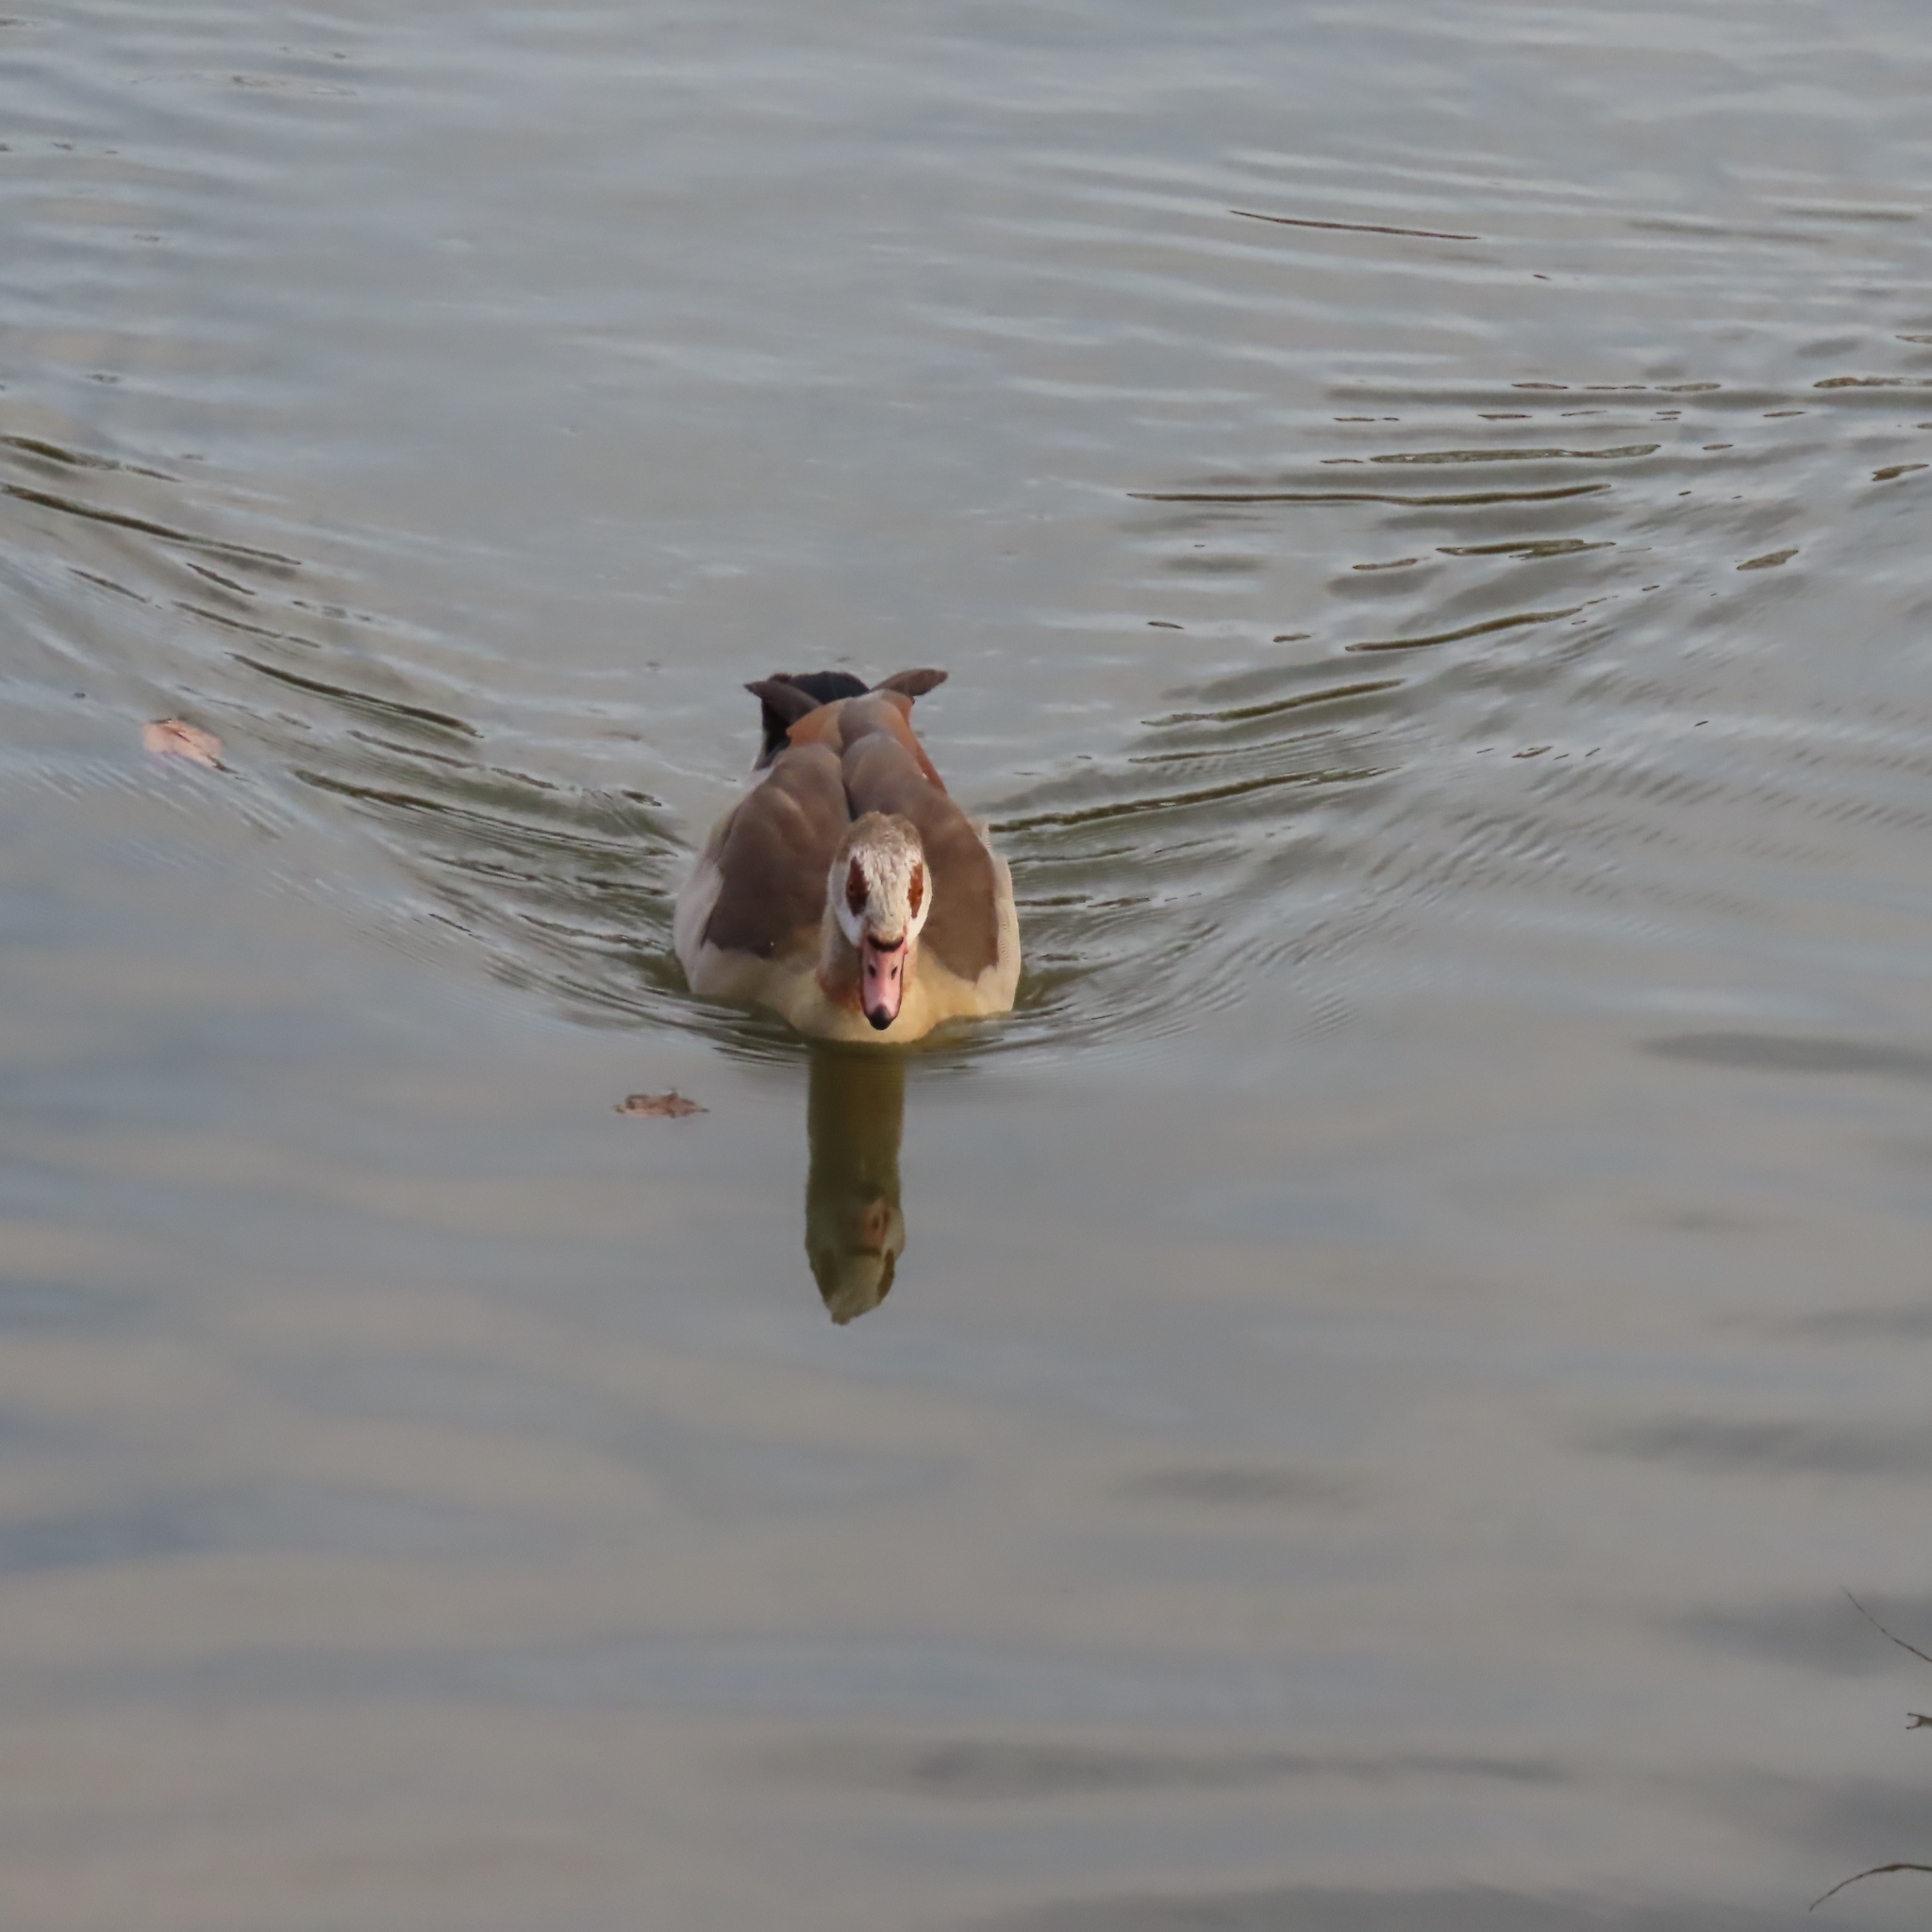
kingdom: Animalia
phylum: Chordata
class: Aves
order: Anseriformes
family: Anatidae
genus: Alopochen
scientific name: Alopochen aegyptiaca
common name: Egyptian goose
